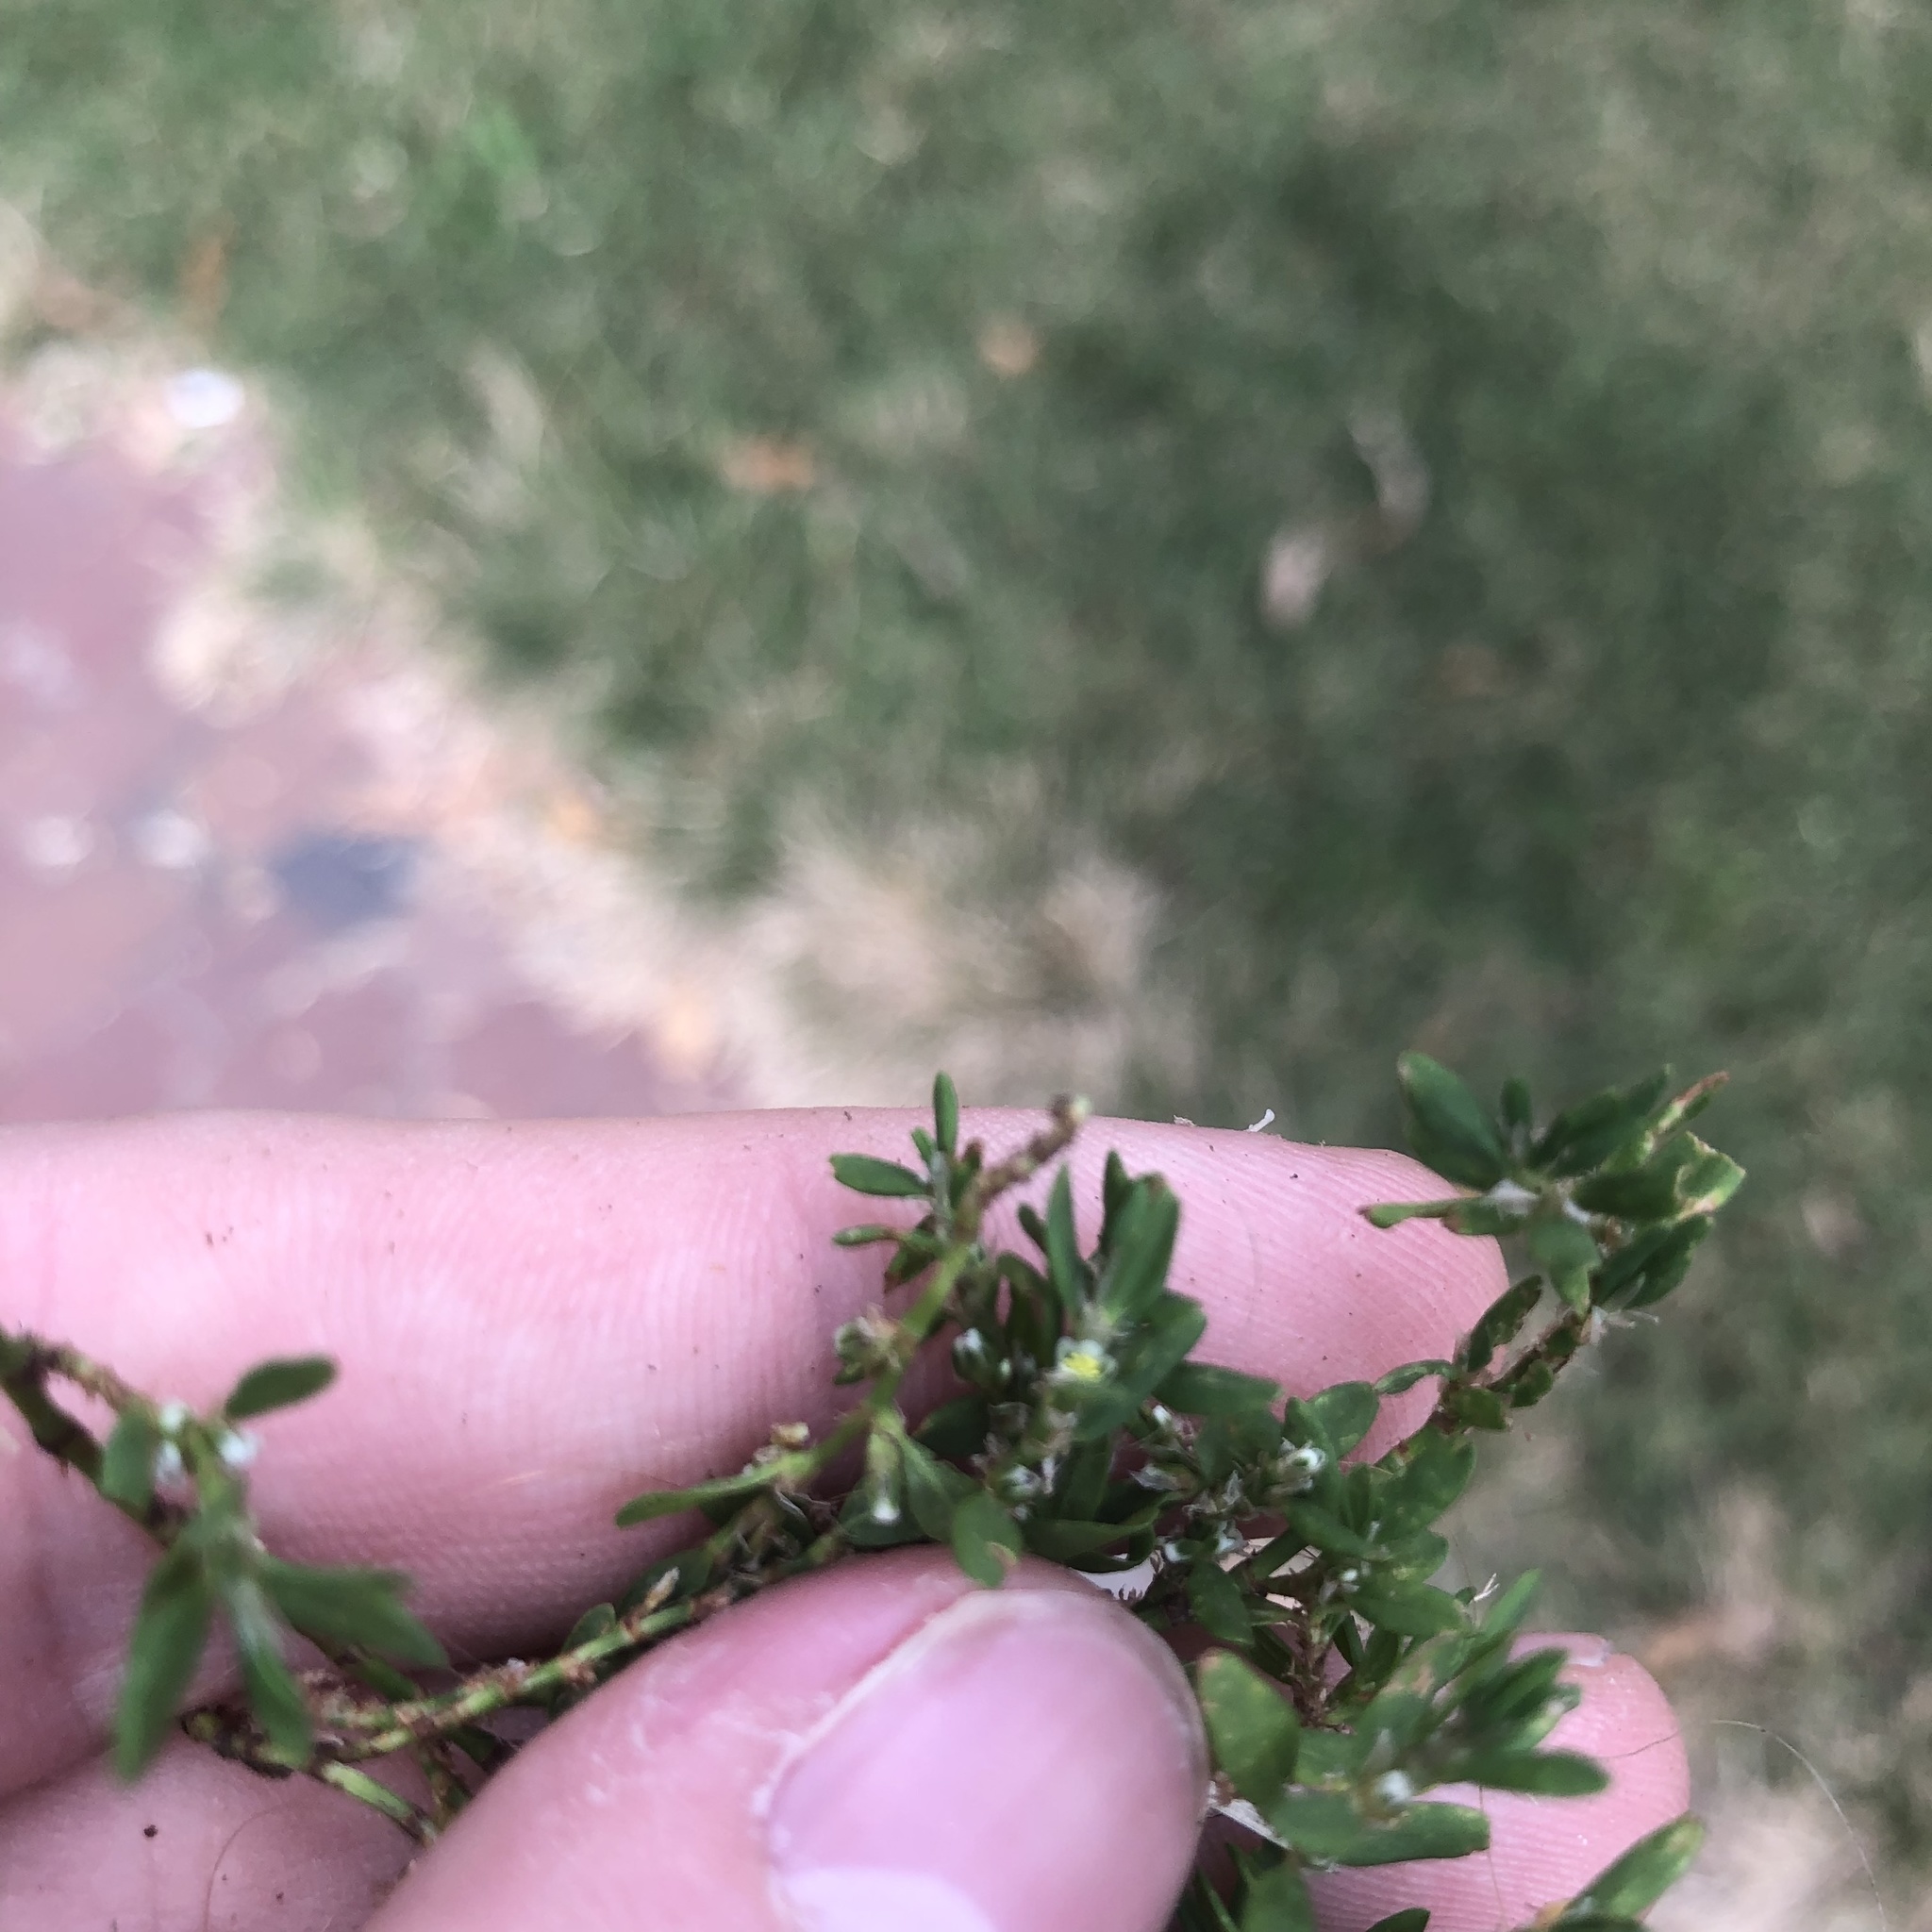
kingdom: Plantae
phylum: Tracheophyta
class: Magnoliopsida
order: Caryophyllales
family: Polygonaceae
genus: Polygonum
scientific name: Polygonum arenastrum
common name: Equal-leaved knotgrass
